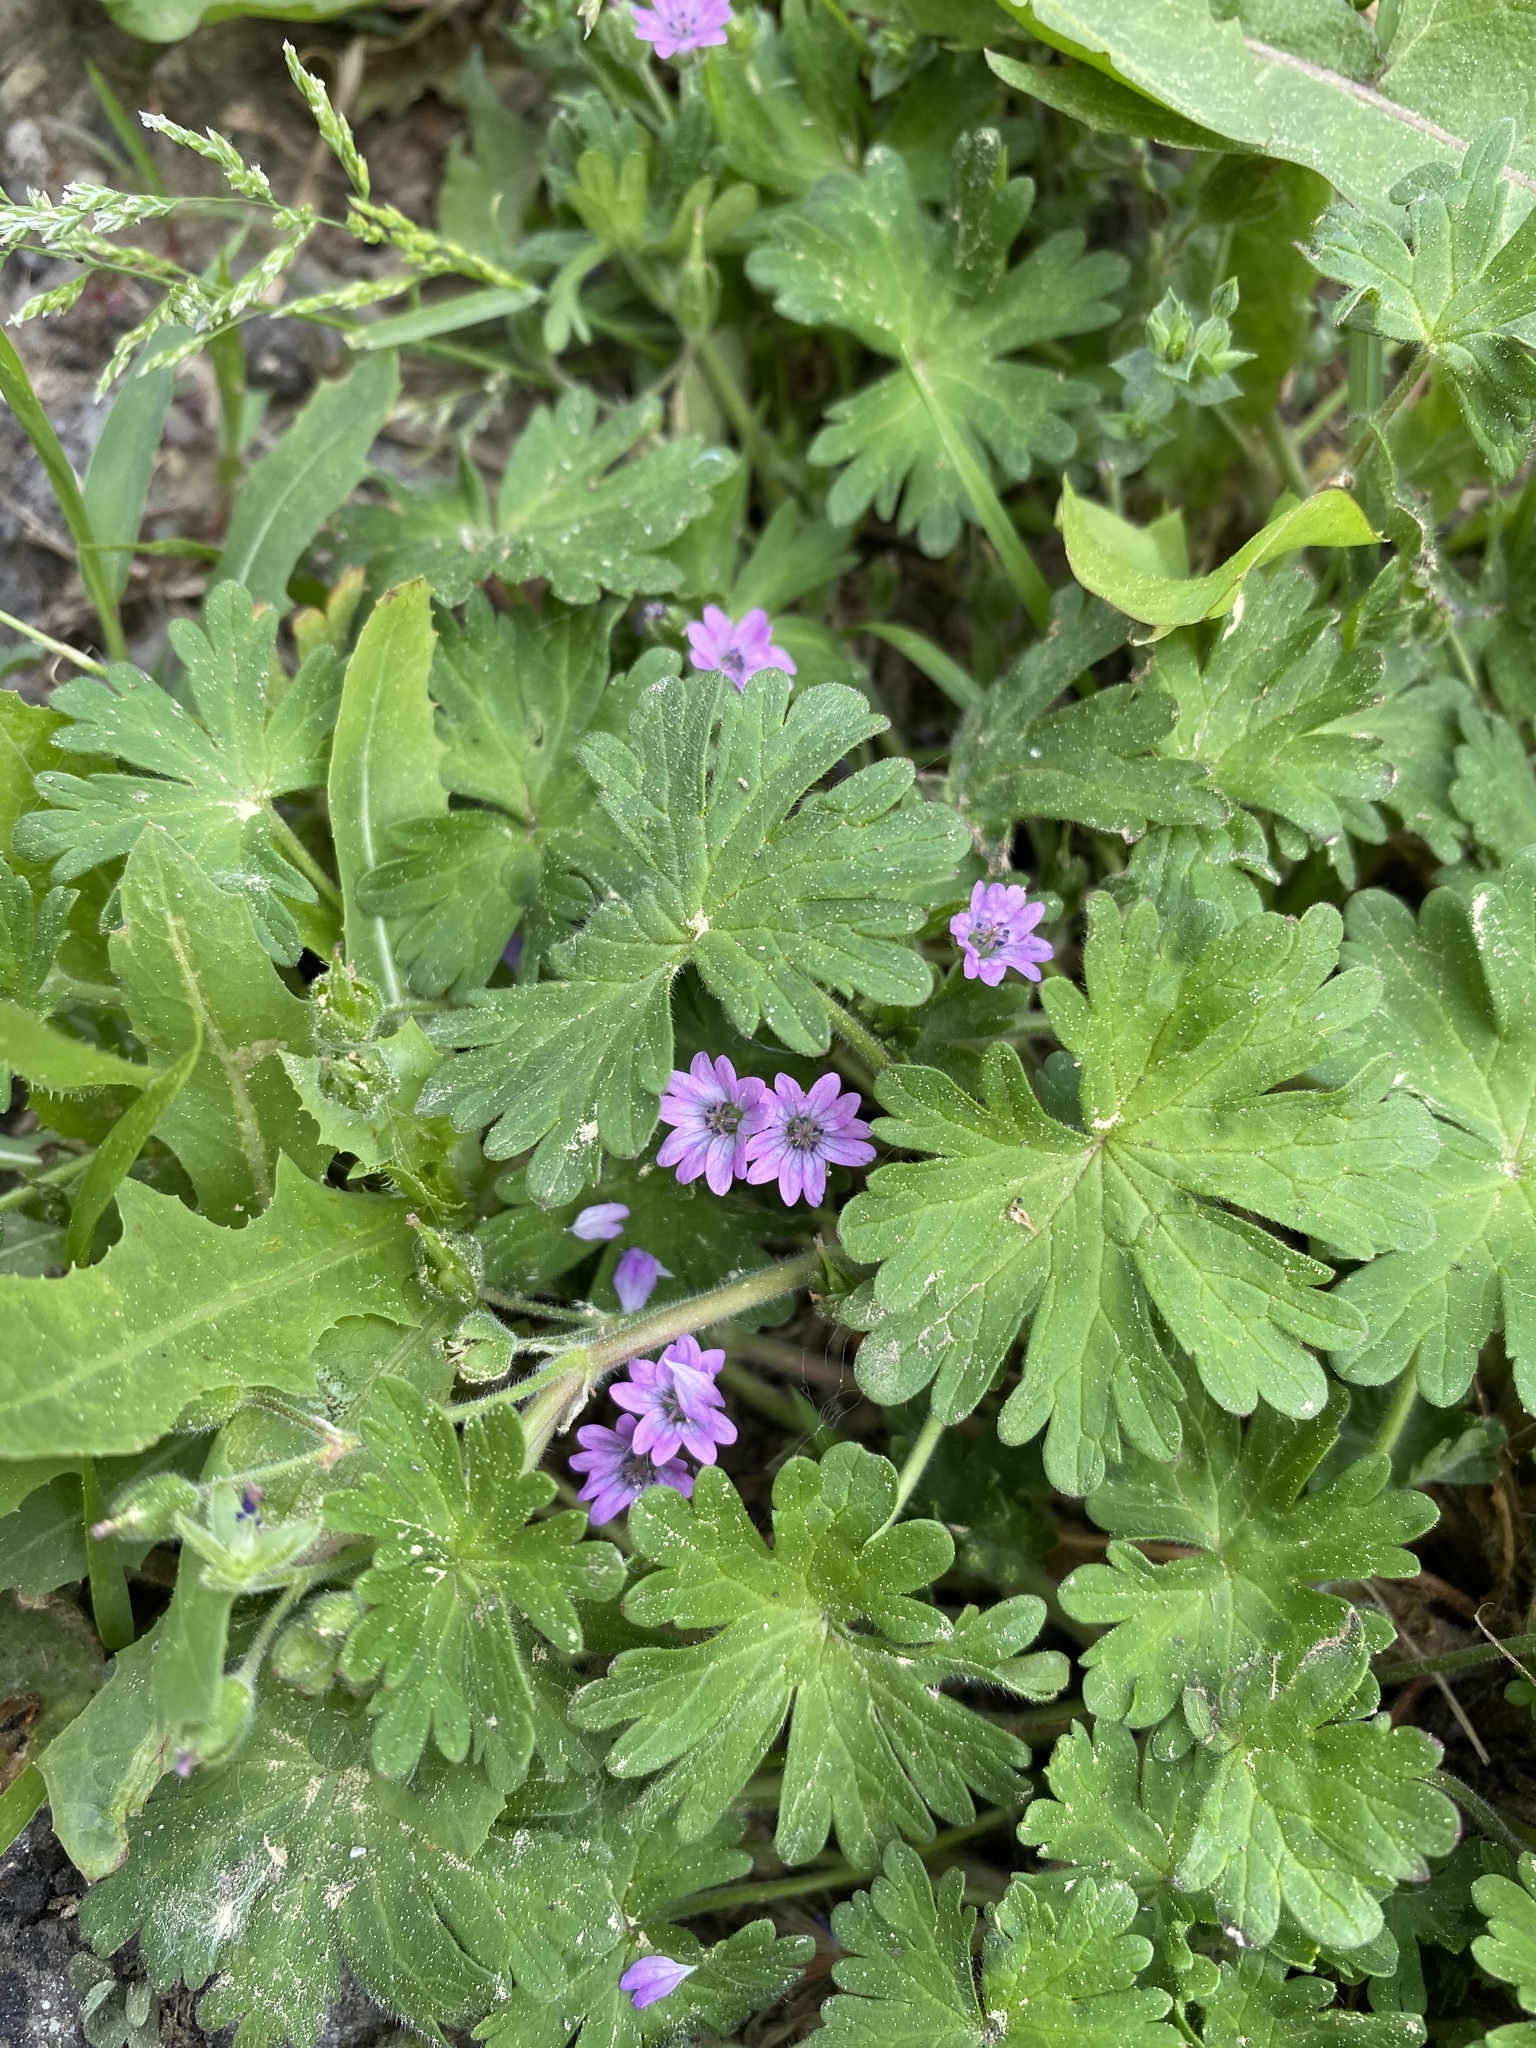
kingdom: Plantae
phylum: Tracheophyta
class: Magnoliopsida
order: Geraniales
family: Geraniaceae
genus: Geranium
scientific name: Geranium pyrenaicum
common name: Hedgerow crane's-bill
